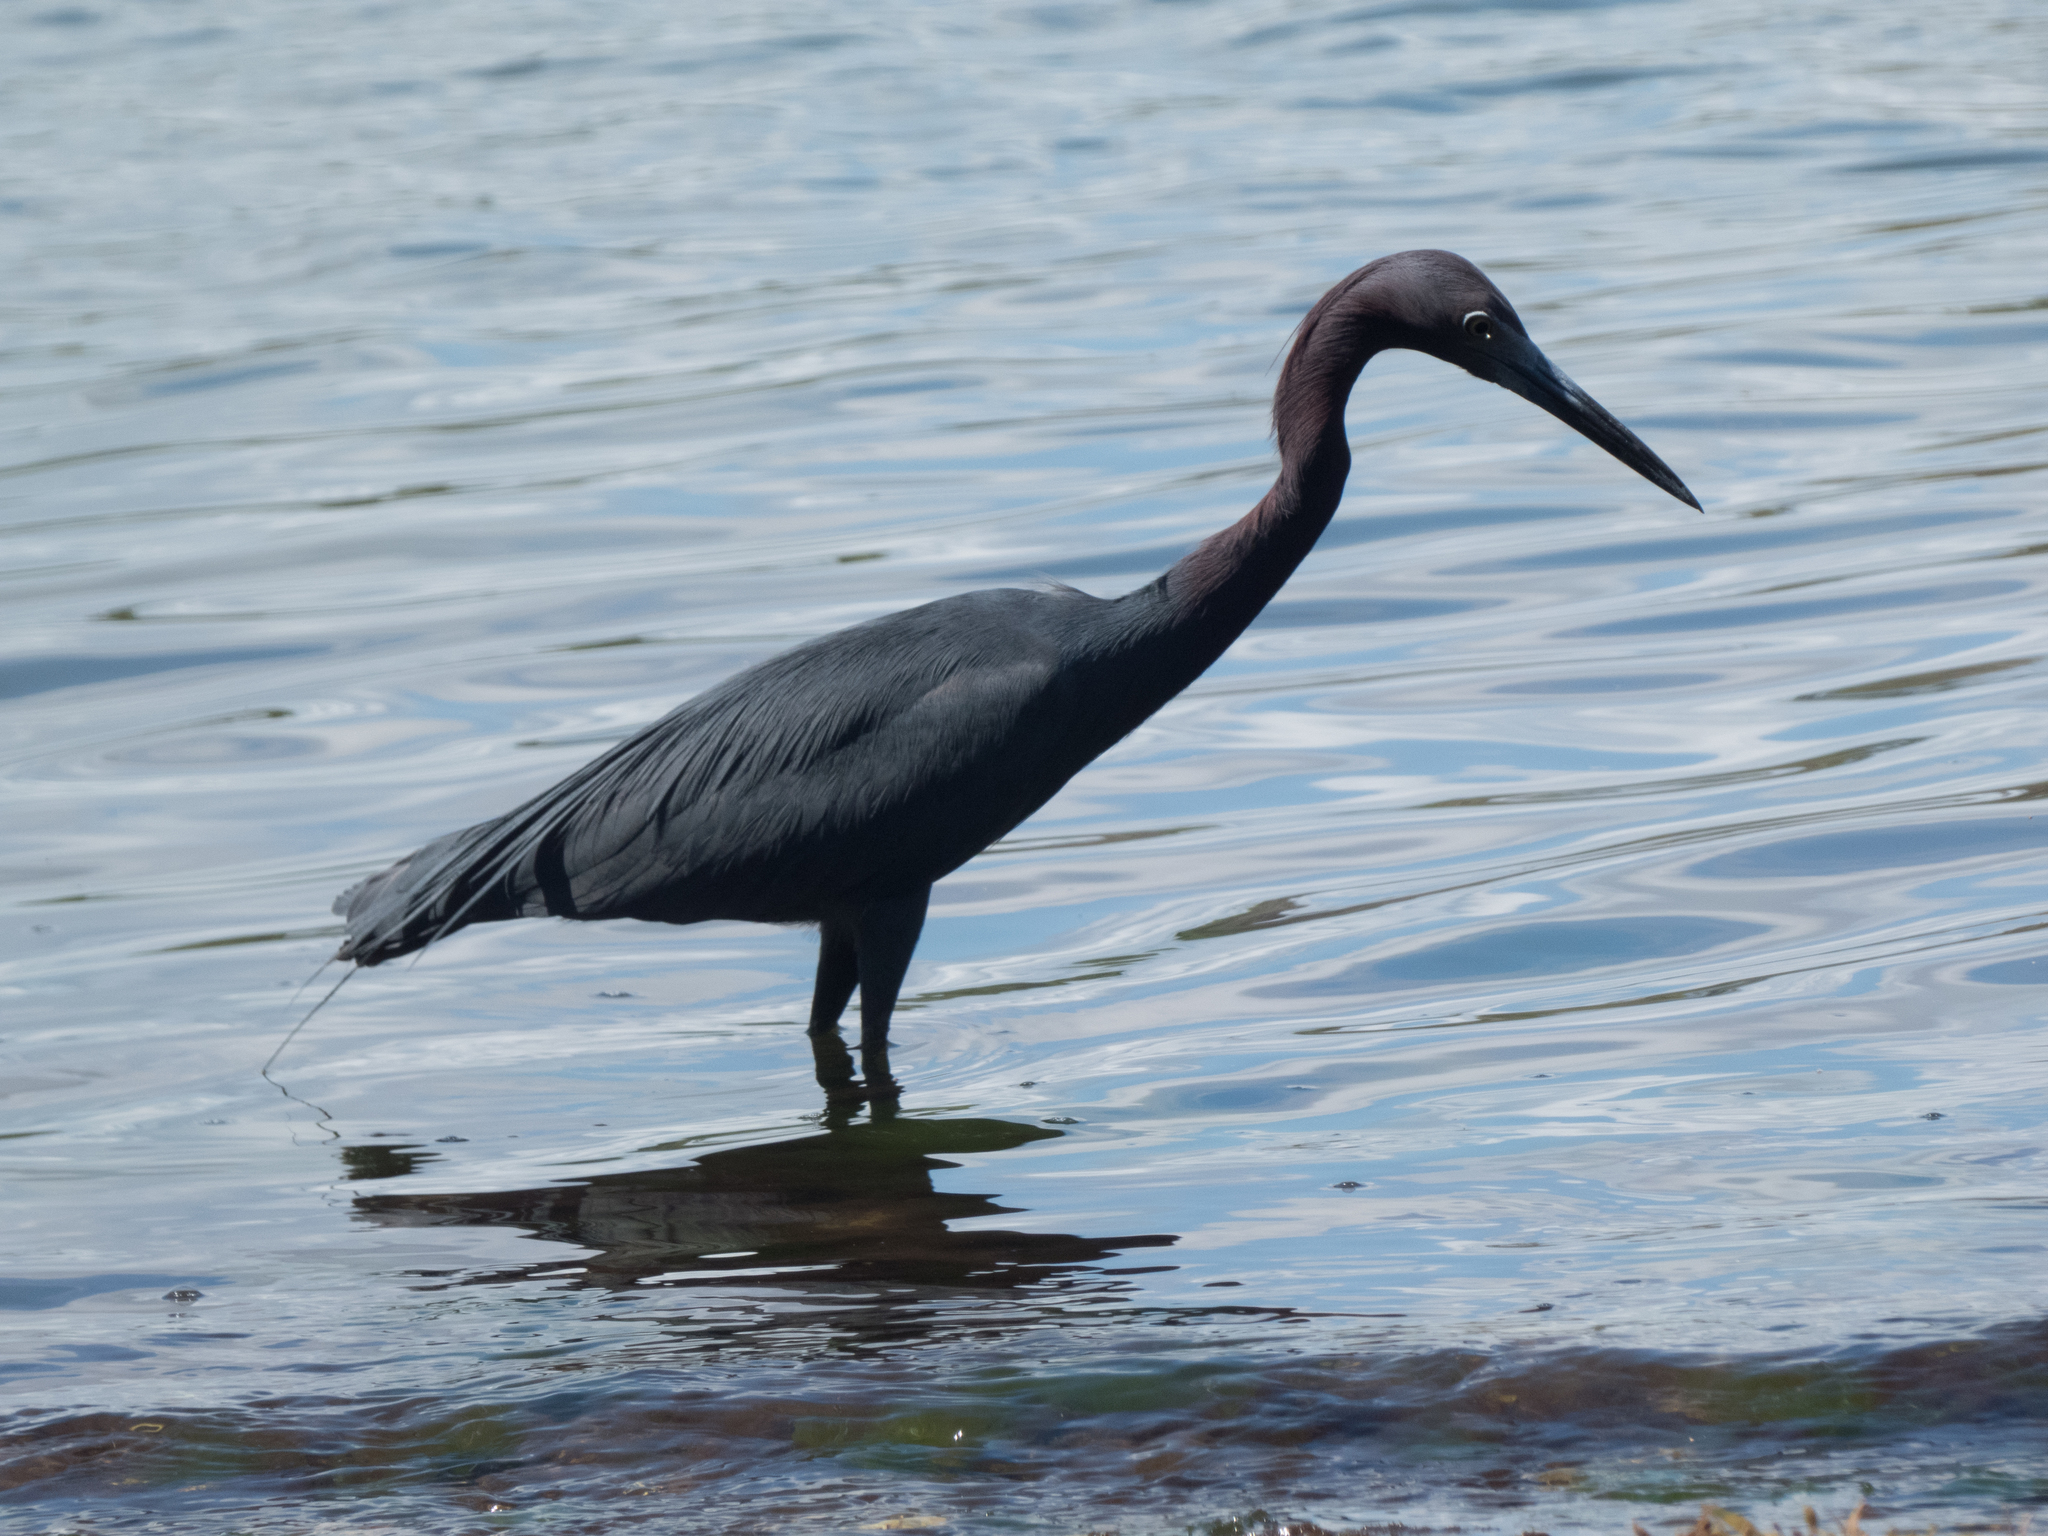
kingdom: Animalia
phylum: Chordata
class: Aves
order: Pelecaniformes
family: Ardeidae
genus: Egretta
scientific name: Egretta caerulea
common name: Little blue heron
